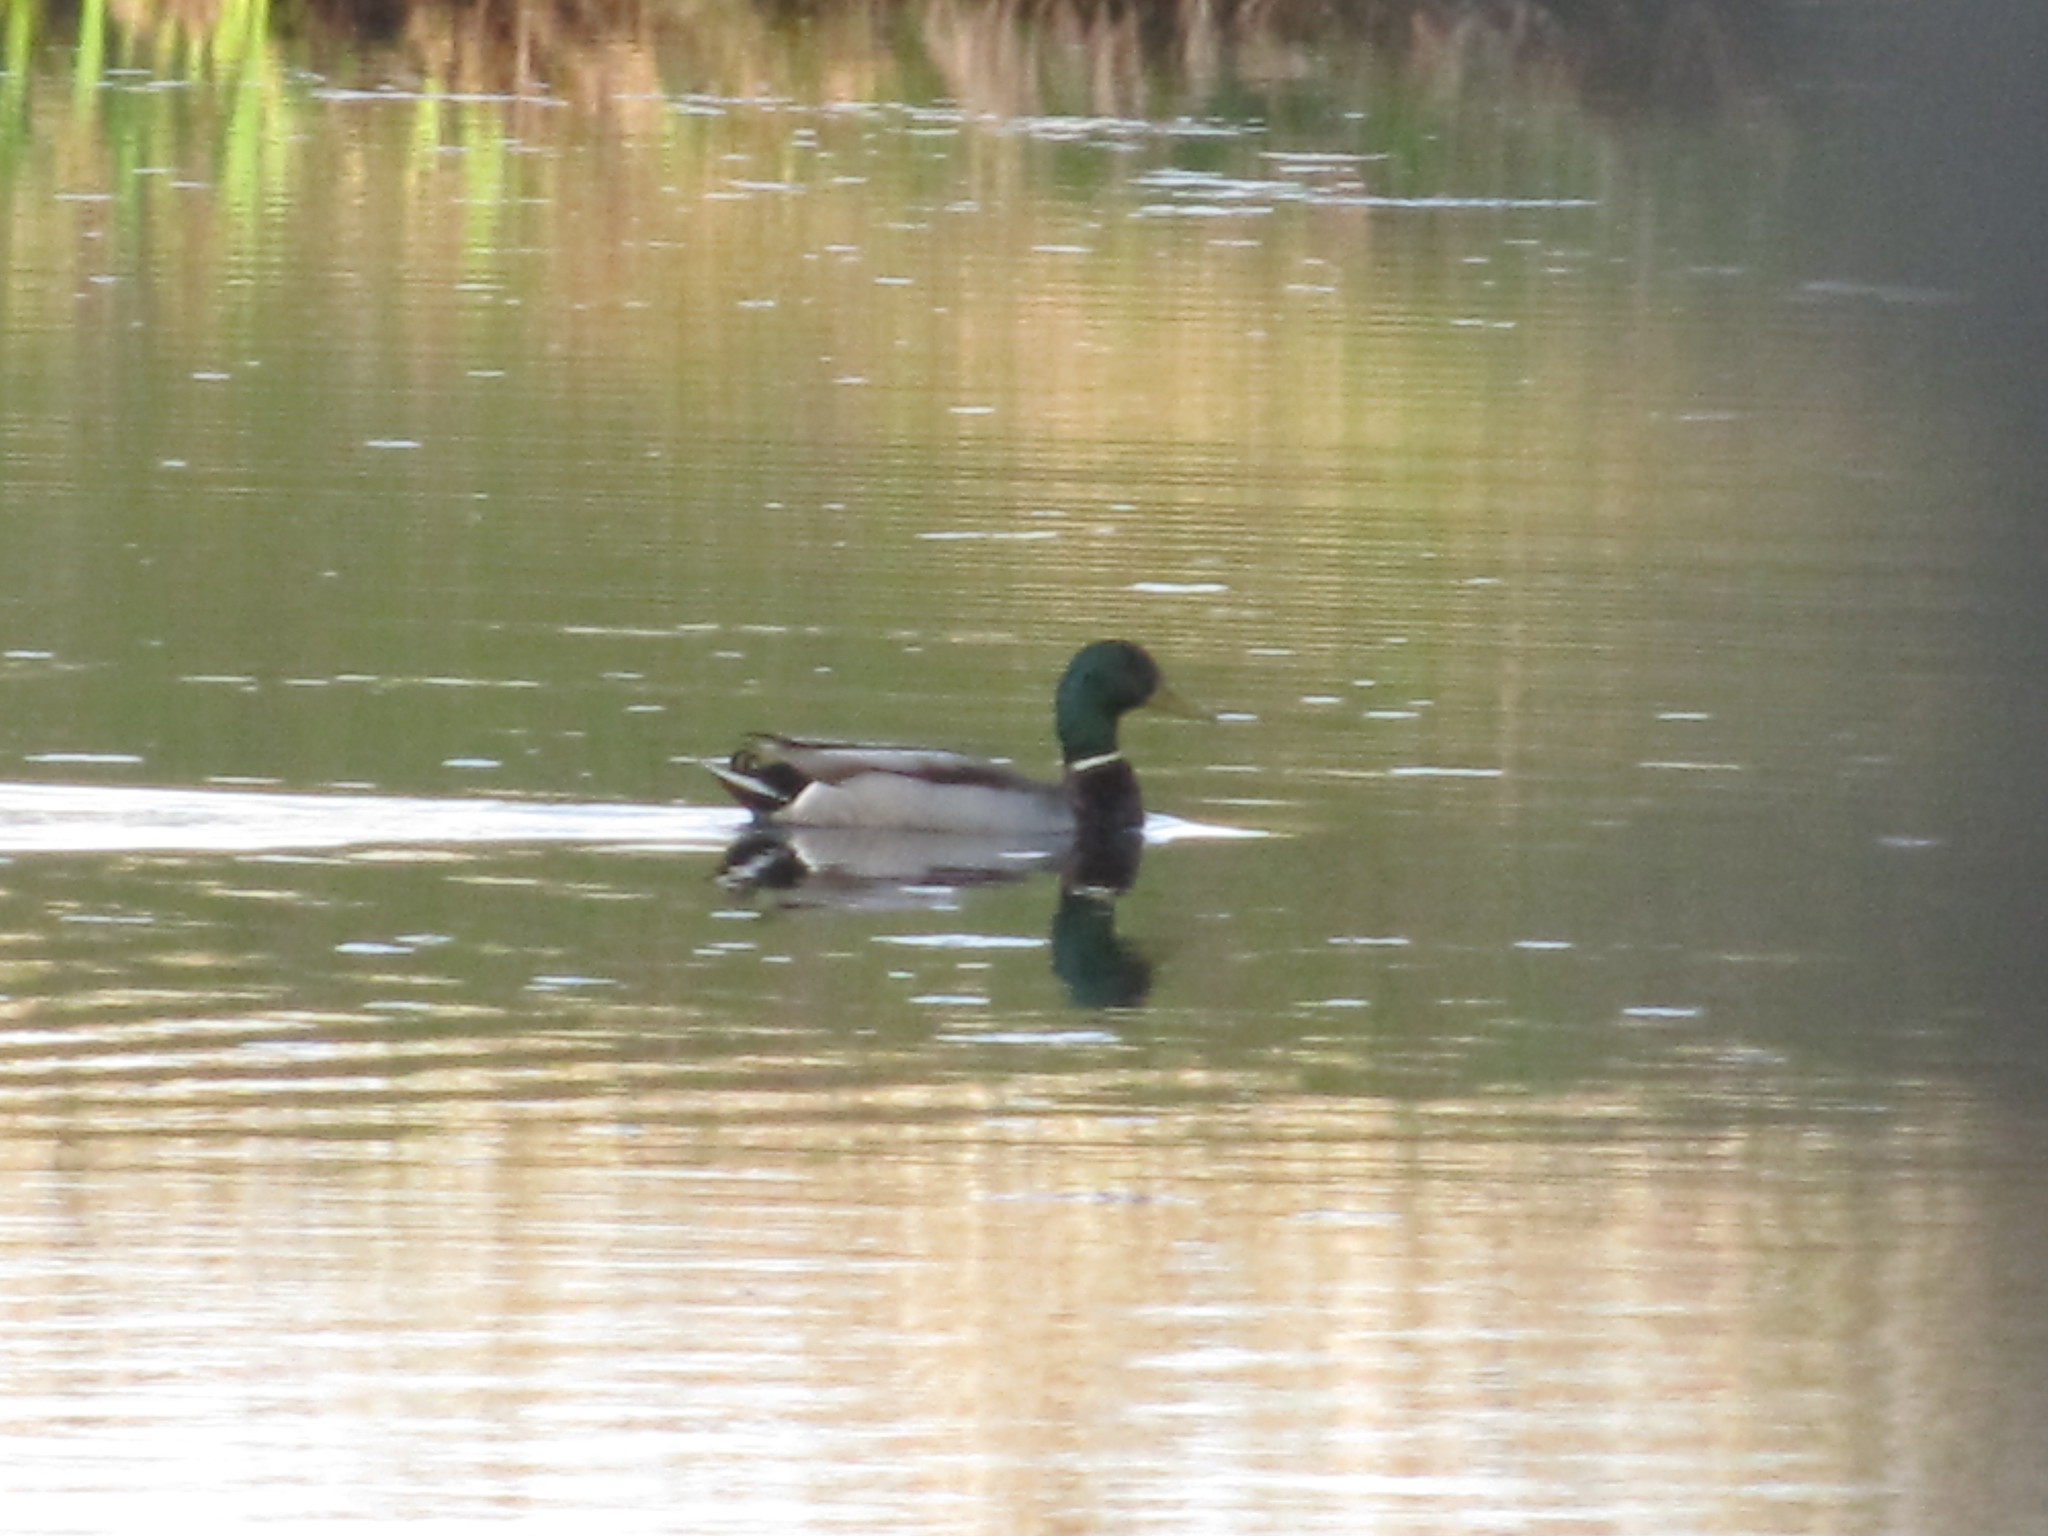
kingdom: Animalia
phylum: Chordata
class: Aves
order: Anseriformes
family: Anatidae
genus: Anas
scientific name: Anas platyrhynchos
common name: Mallard
